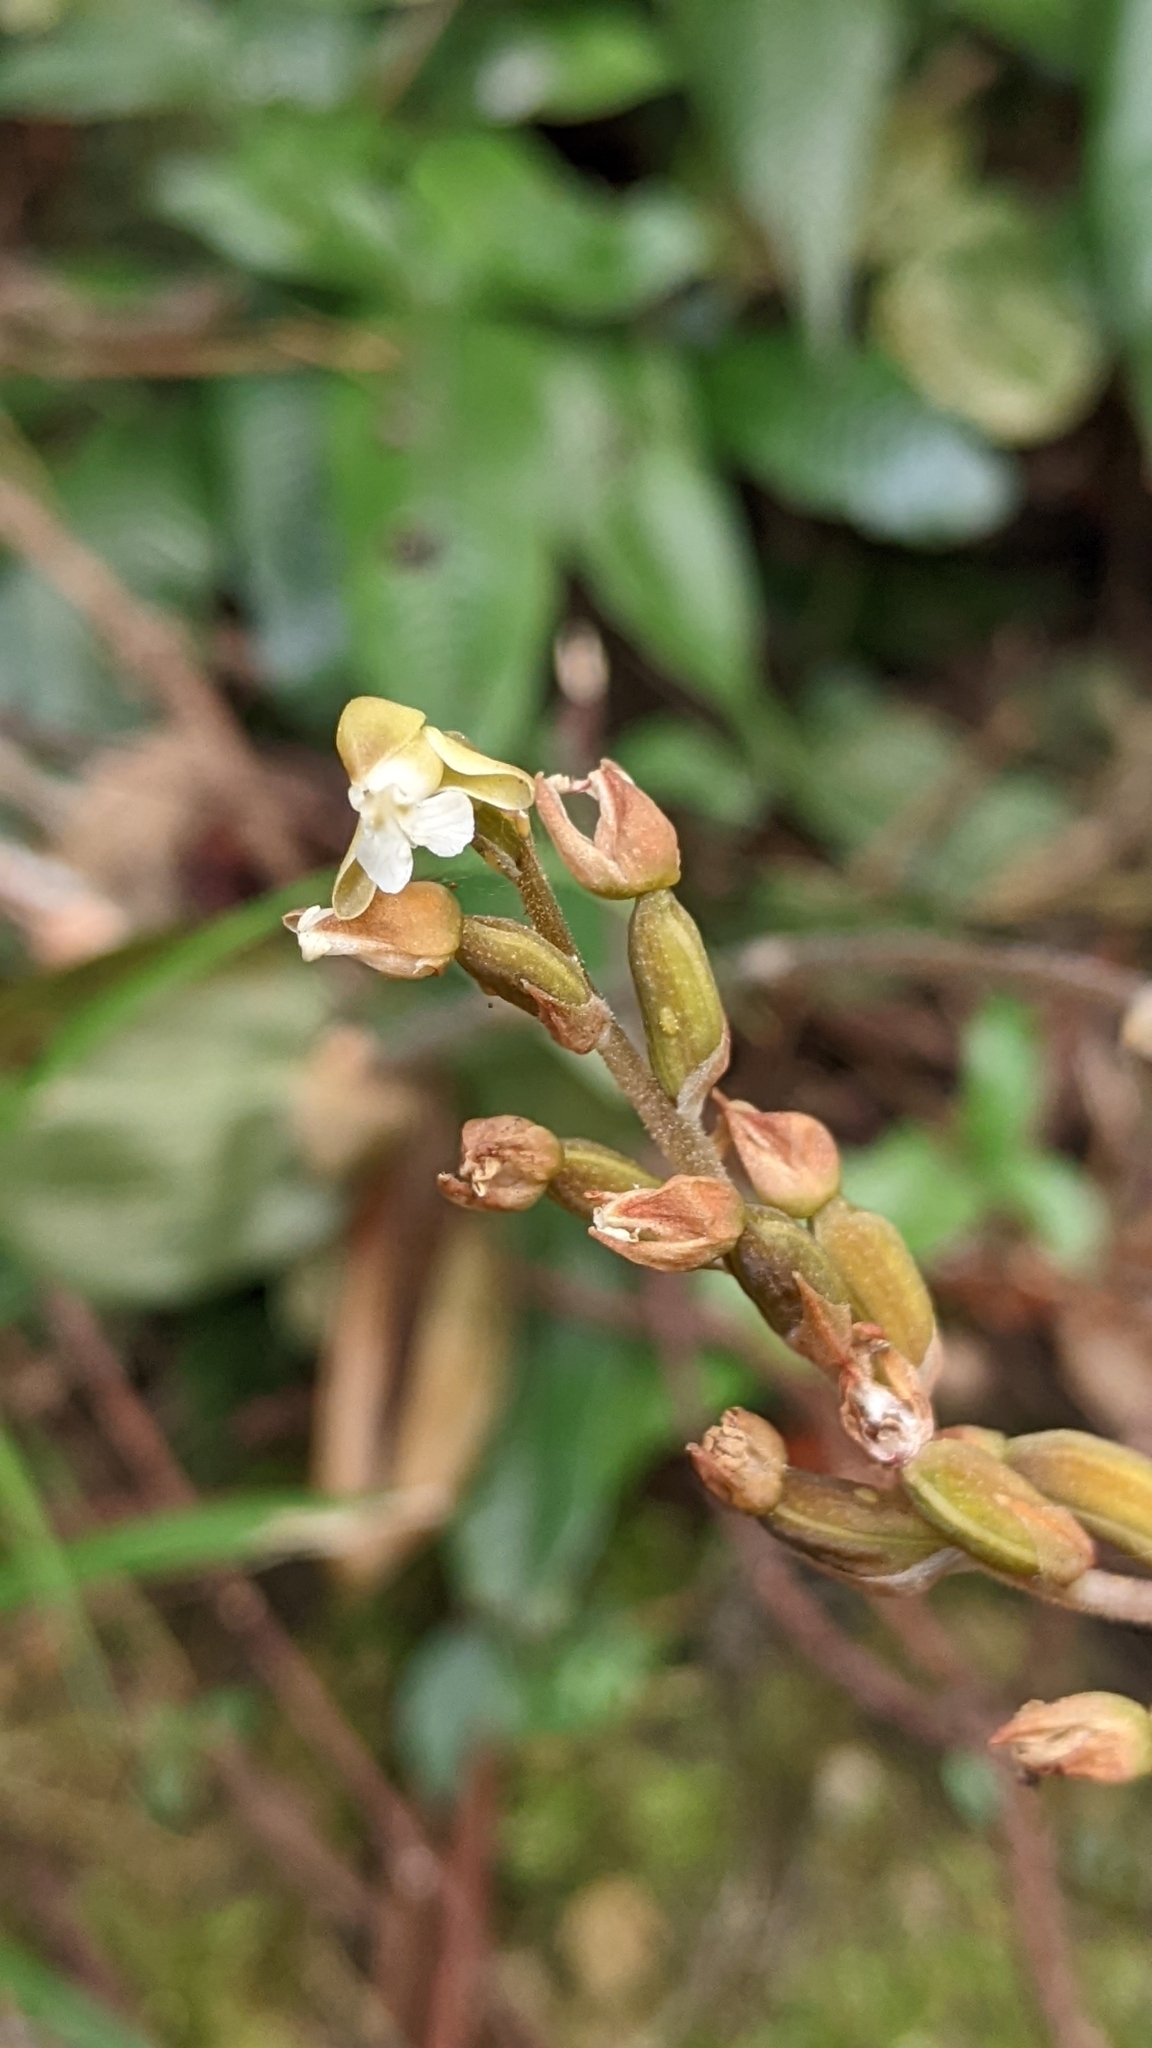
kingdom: Plantae
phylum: Tracheophyta
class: Liliopsida
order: Asparagales
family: Orchidaceae
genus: Zeuxine
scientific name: Zeuxine nervosa
